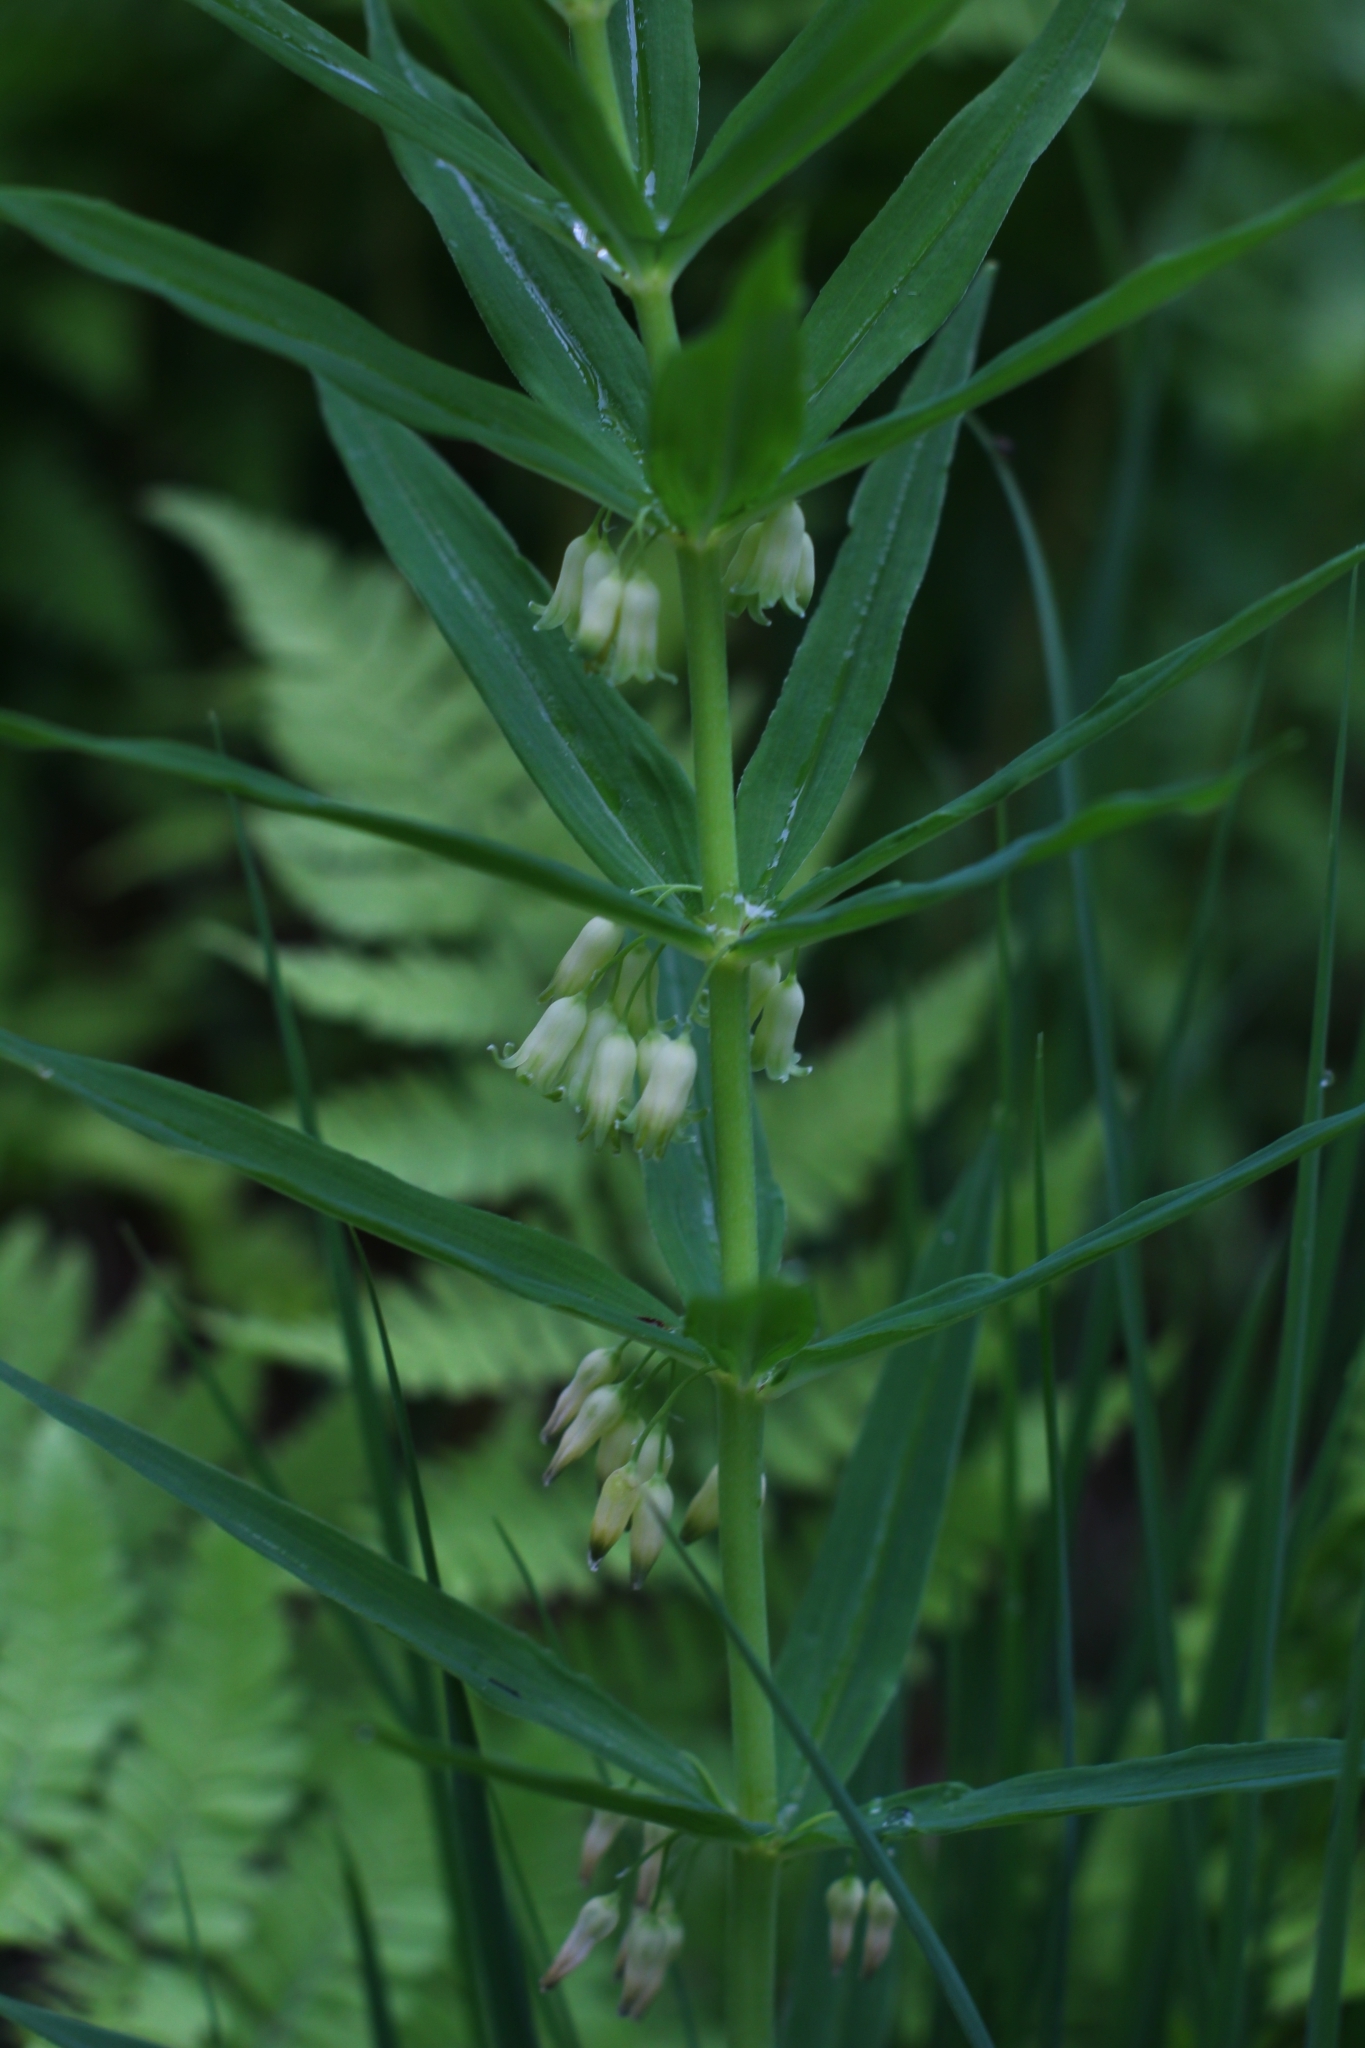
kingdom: Plantae
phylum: Tracheophyta
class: Liliopsida
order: Asparagales
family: Asparagaceae
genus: Polygonatum
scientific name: Polygonatum verticillatum
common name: Whorled solomon's-seal
